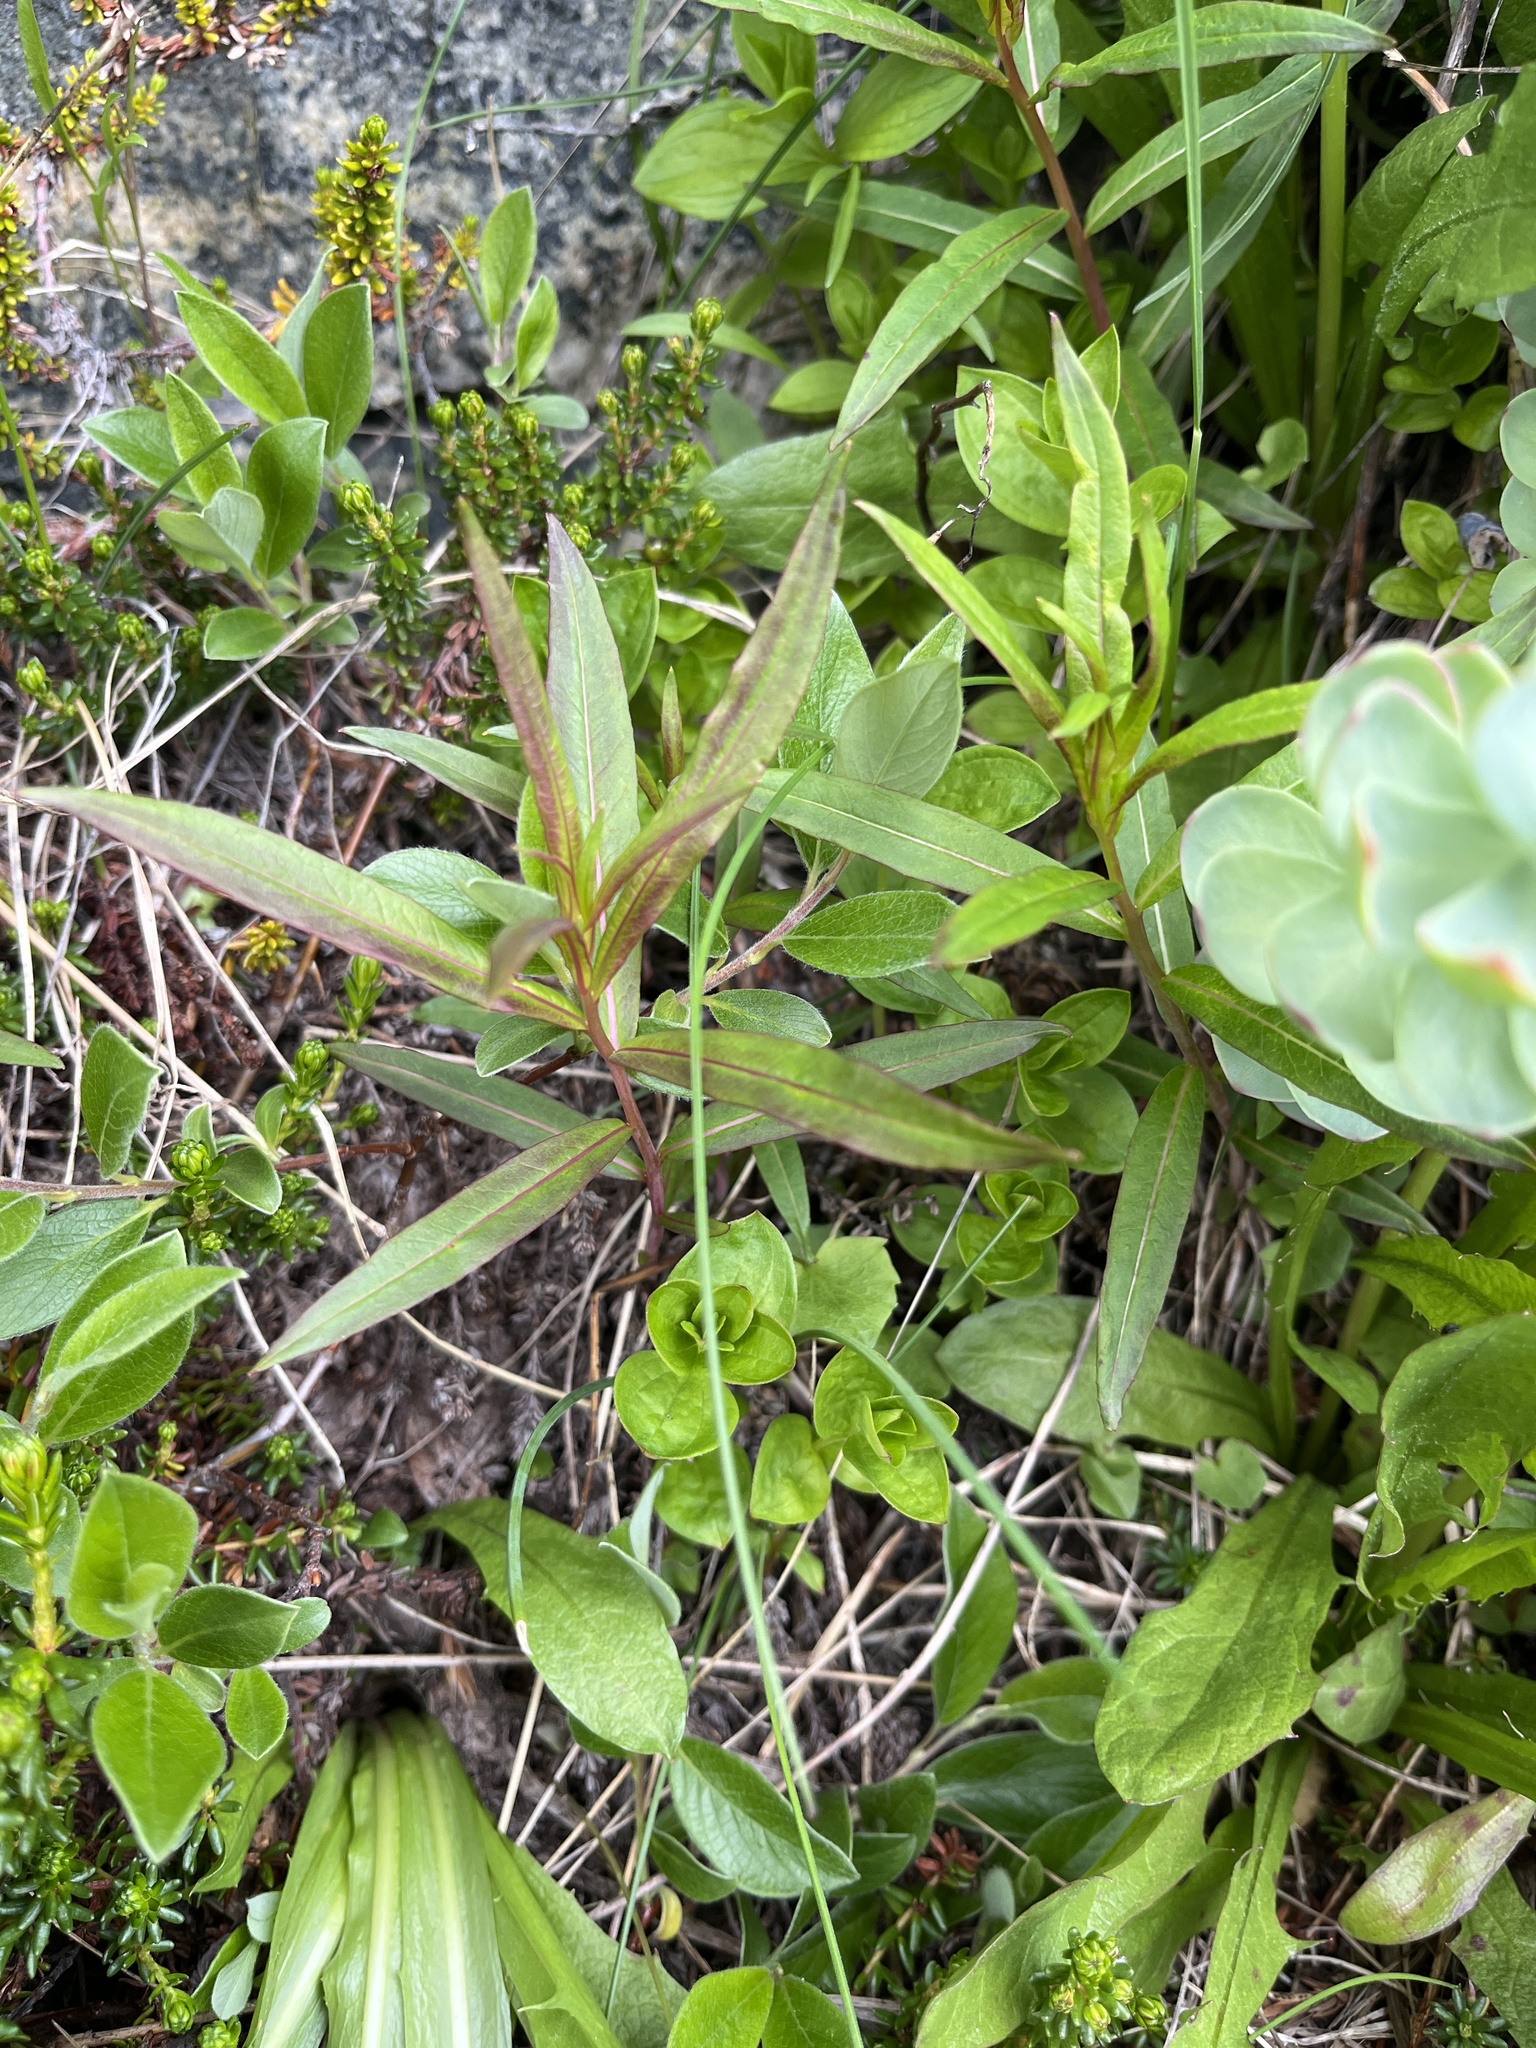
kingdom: Plantae
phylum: Tracheophyta
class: Magnoliopsida
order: Myrtales
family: Onagraceae
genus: Chamaenerion
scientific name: Chamaenerion angustifolium
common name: Fireweed
